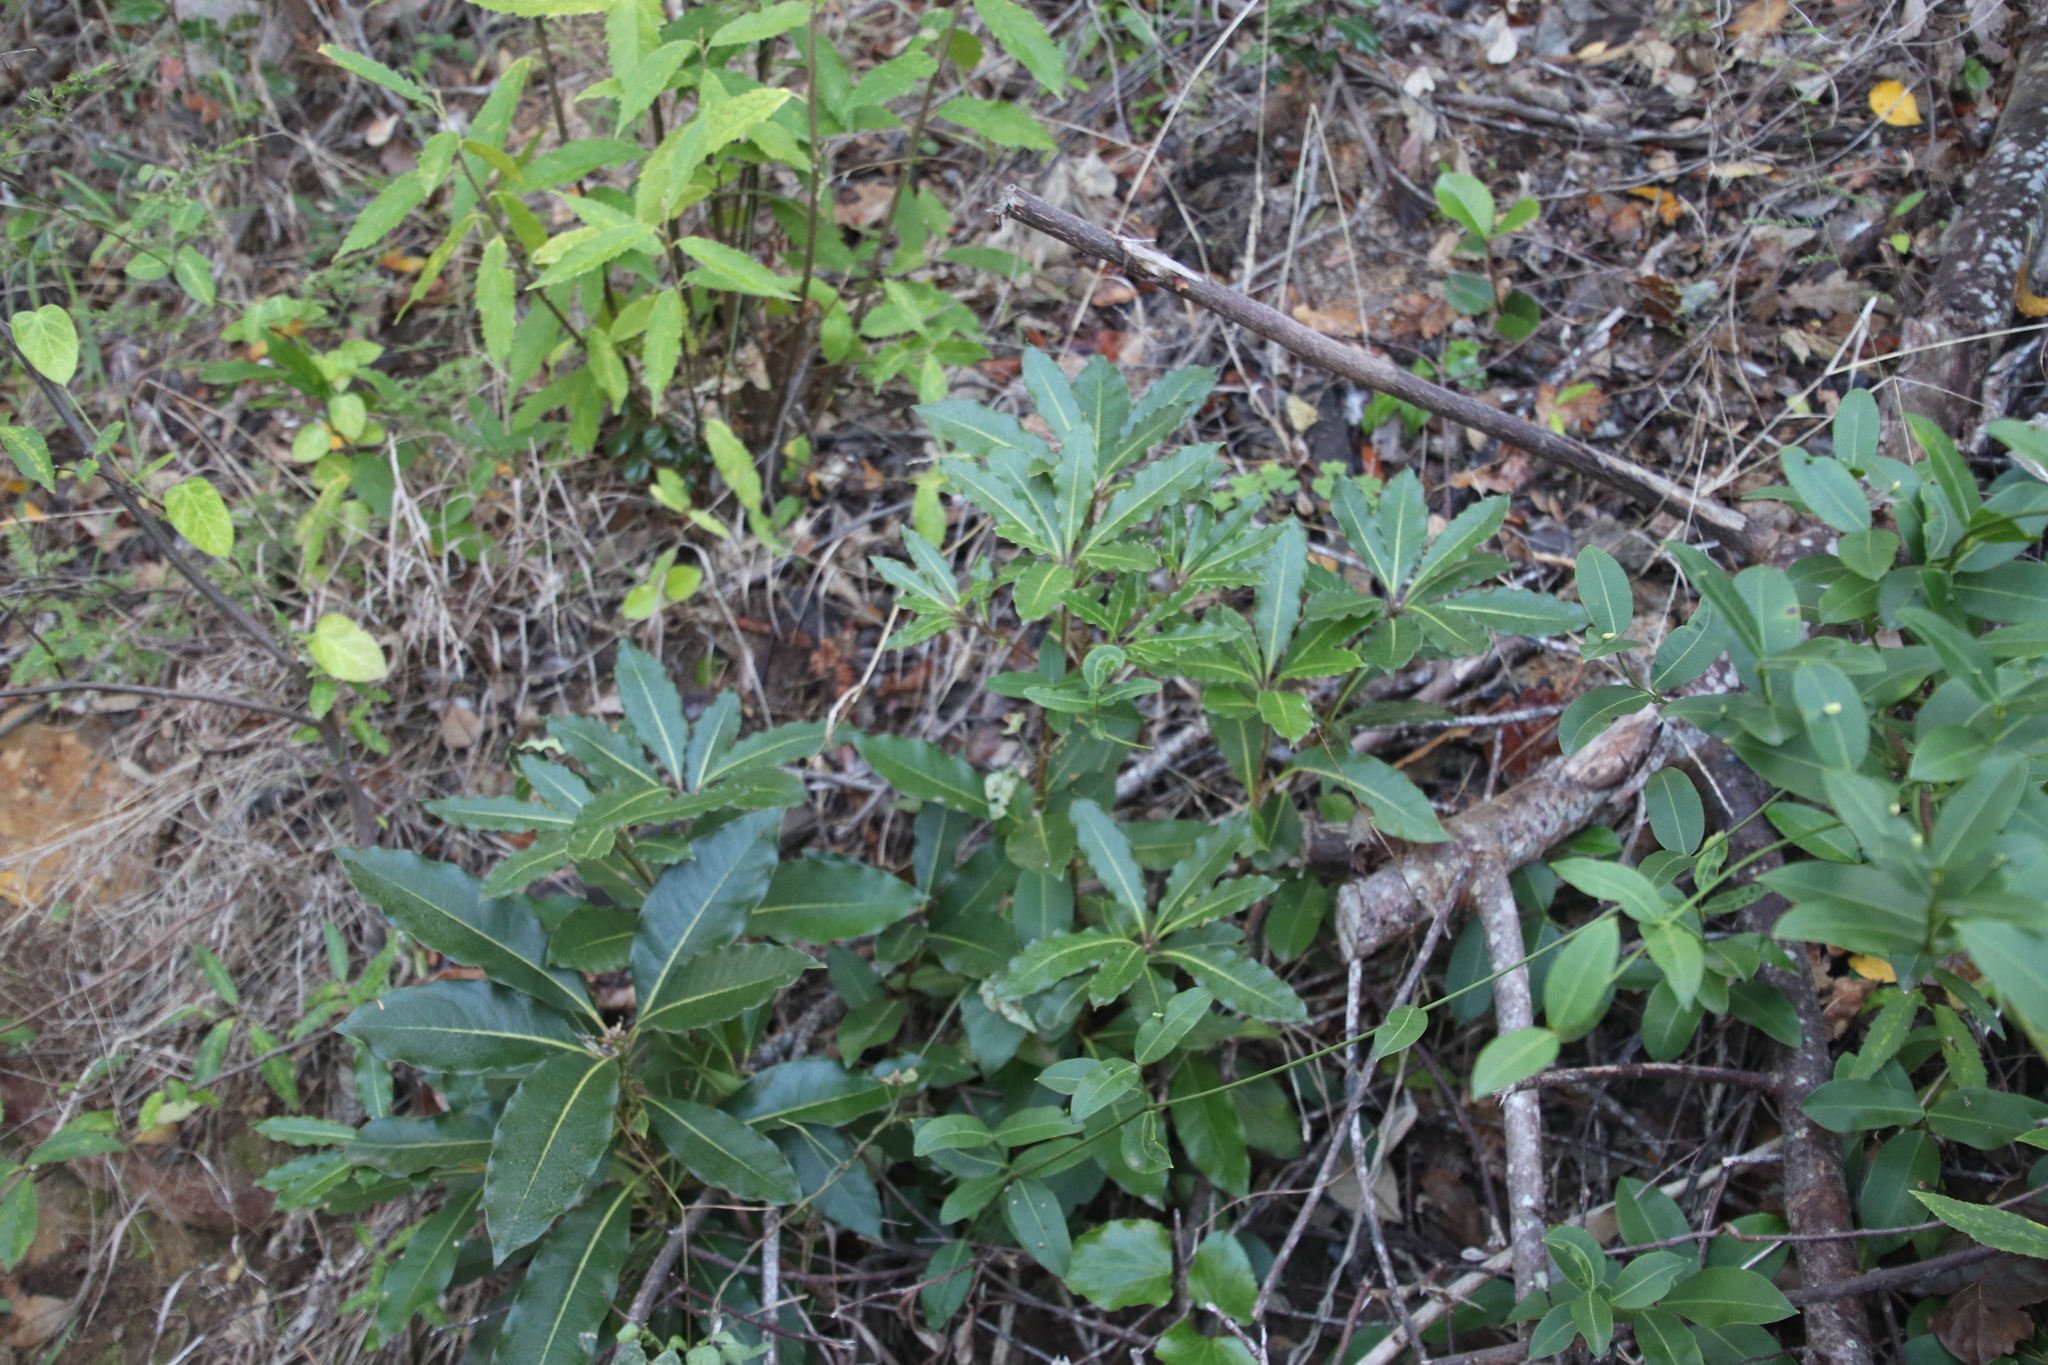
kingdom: Plantae
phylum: Tracheophyta
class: Magnoliopsida
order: Apiales
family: Pittosporaceae
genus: Pittosporum
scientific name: Pittosporum undulatum
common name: Australian cheesewood
